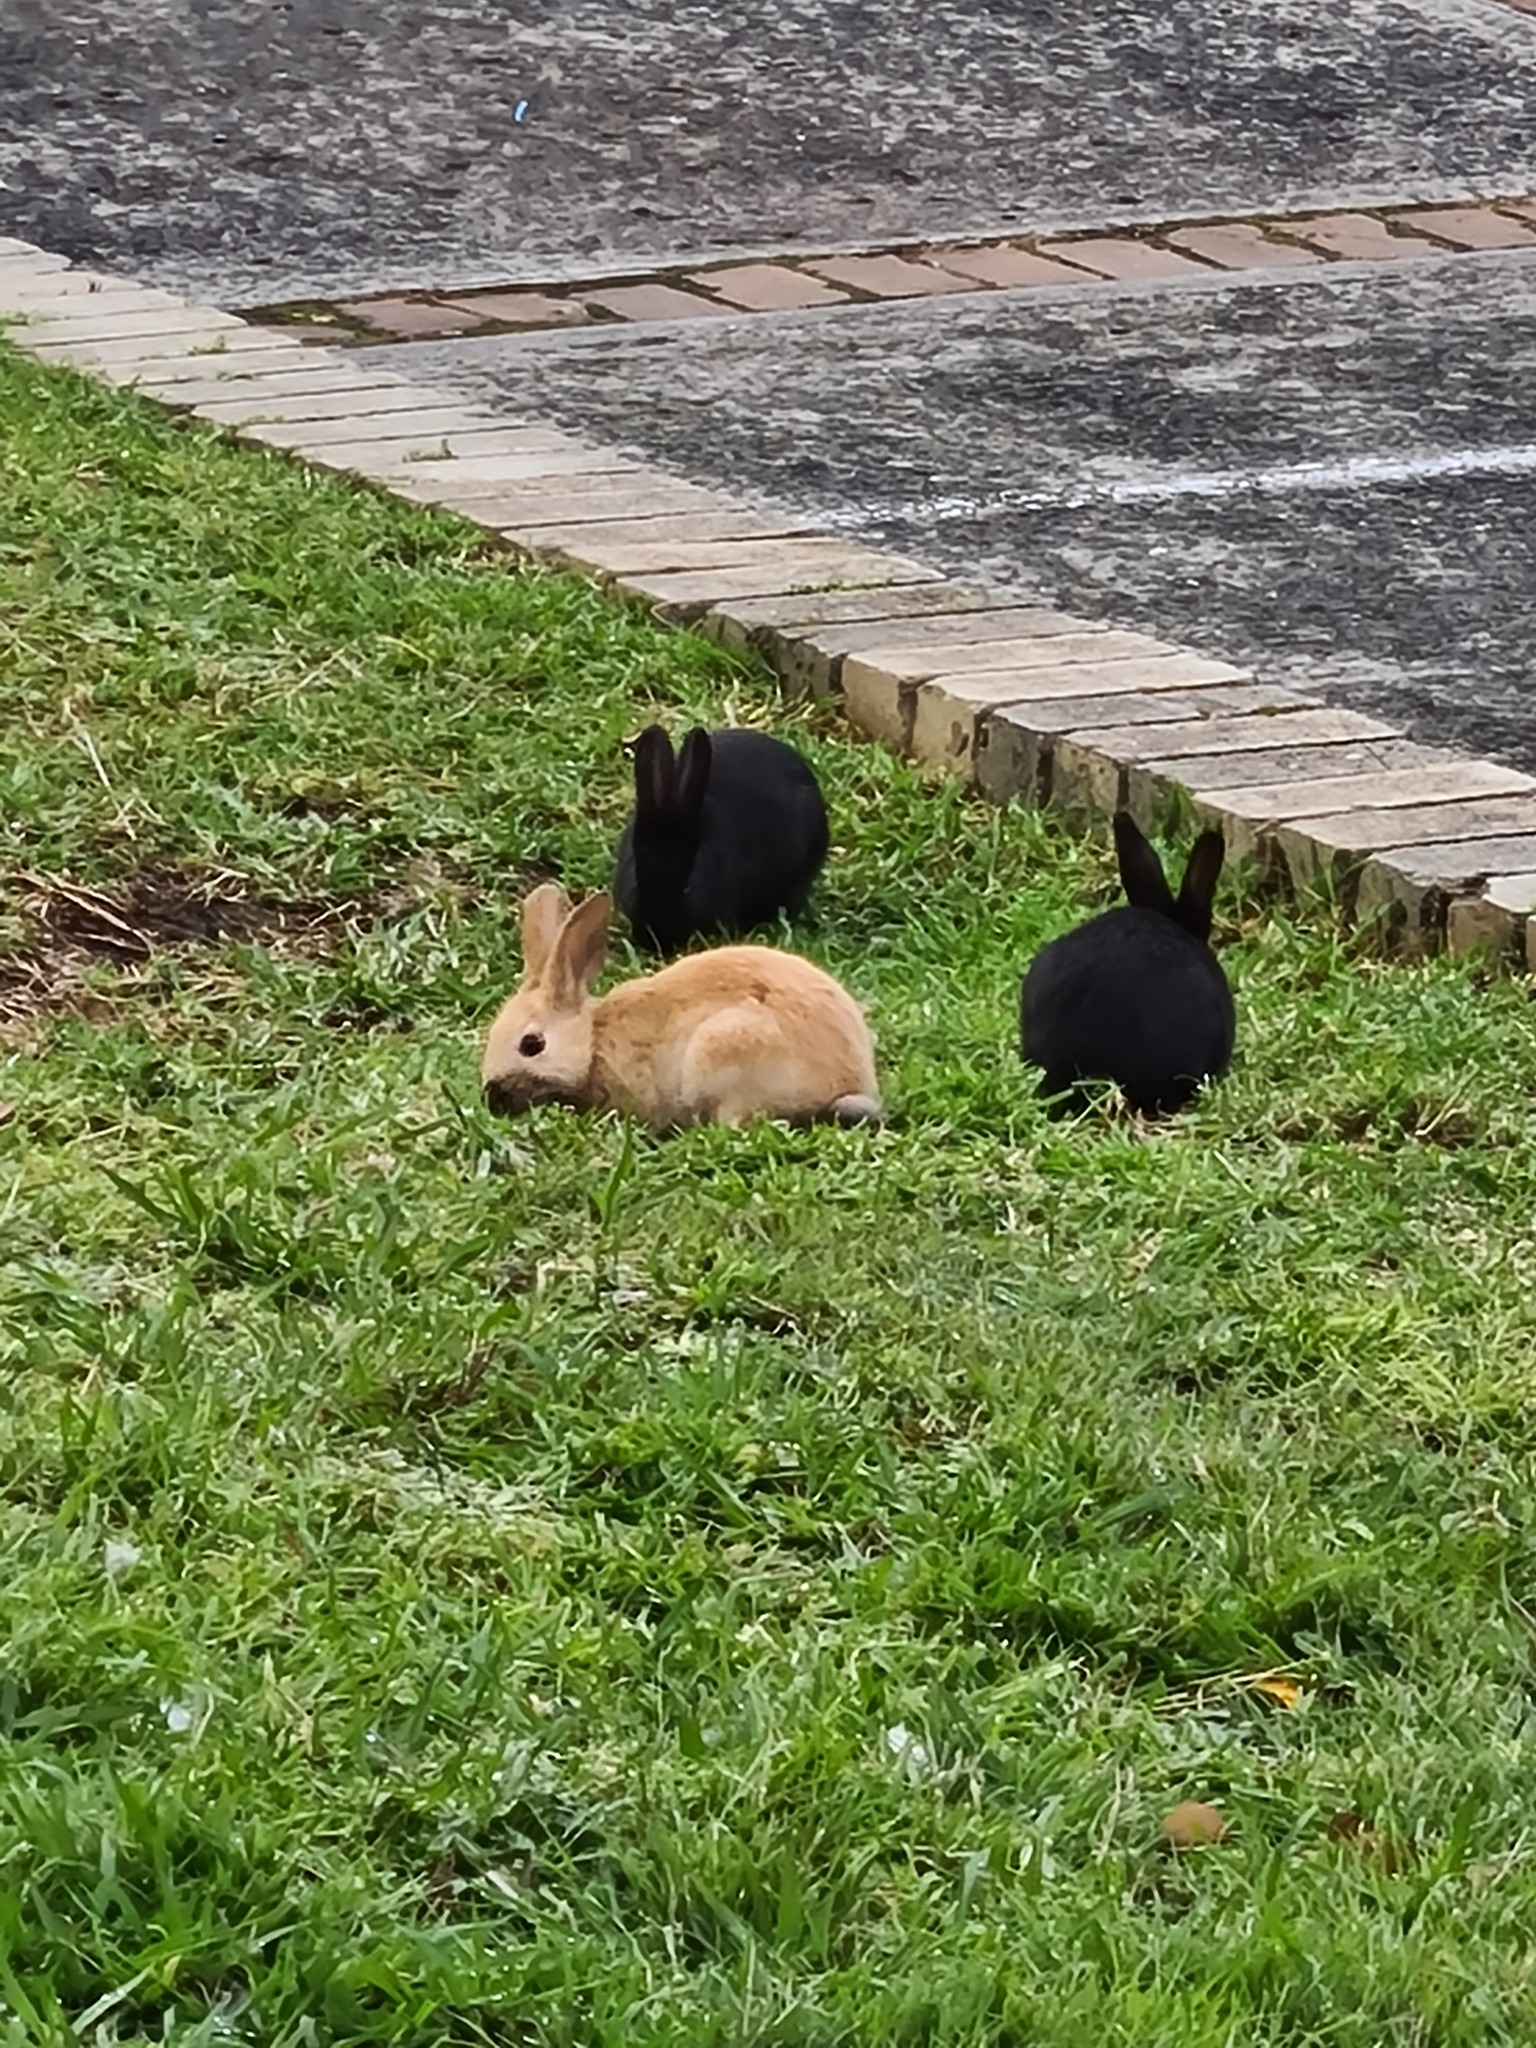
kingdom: Animalia
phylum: Chordata
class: Mammalia
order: Lagomorpha
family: Leporidae
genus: Oryctolagus
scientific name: Oryctolagus cuniculus
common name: European rabbit
